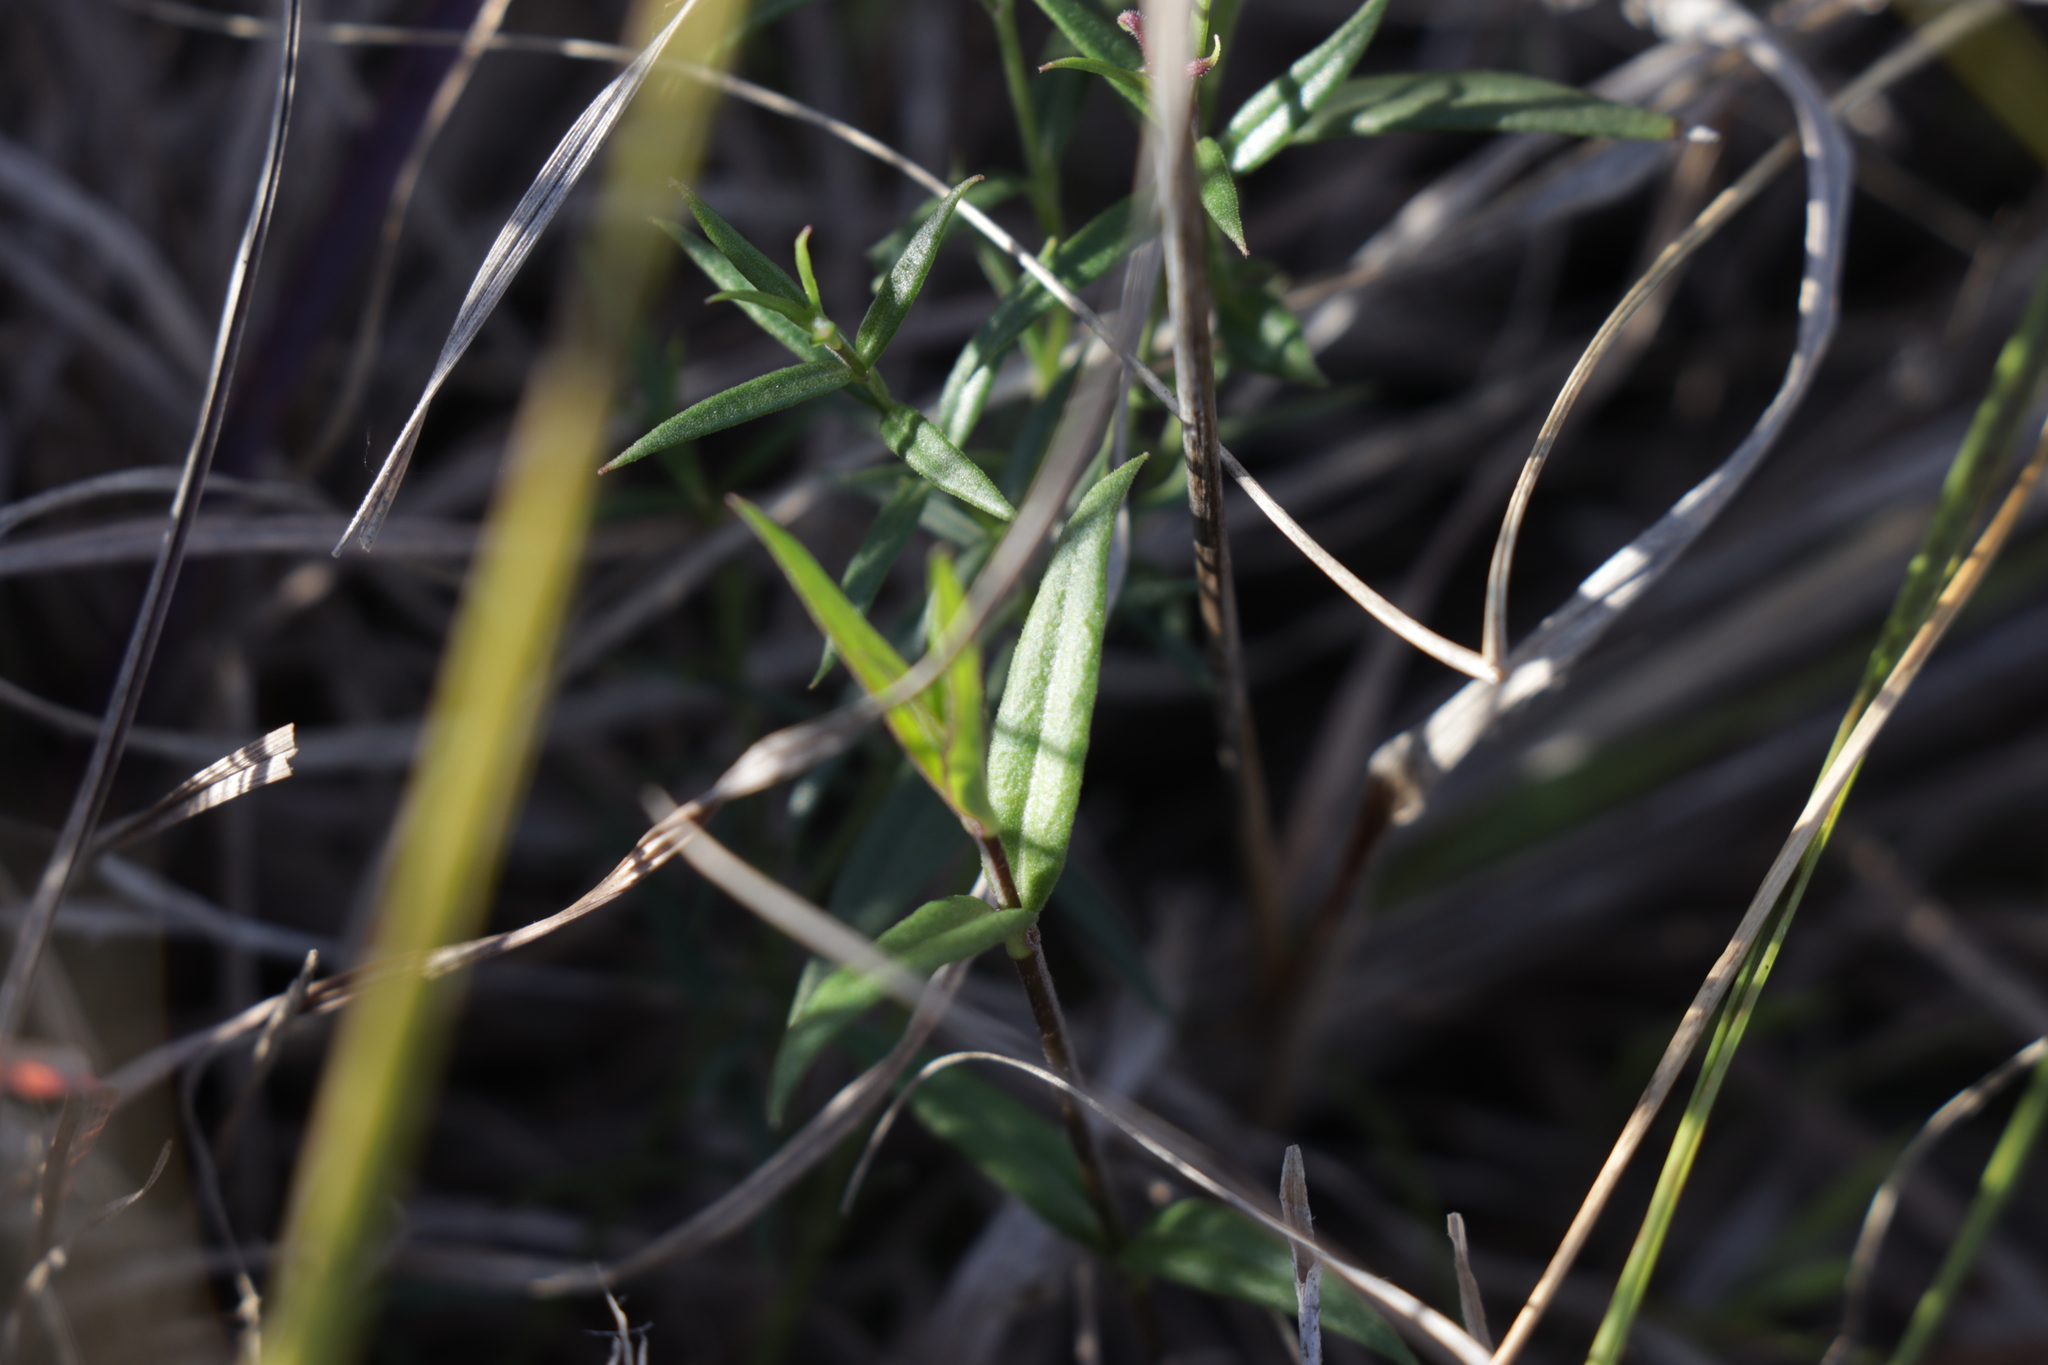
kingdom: Plantae
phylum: Tracheophyta
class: Magnoliopsida
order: Lamiales
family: Plantaginaceae
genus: Veronica
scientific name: Veronica gracilis
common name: Slender speedwell
